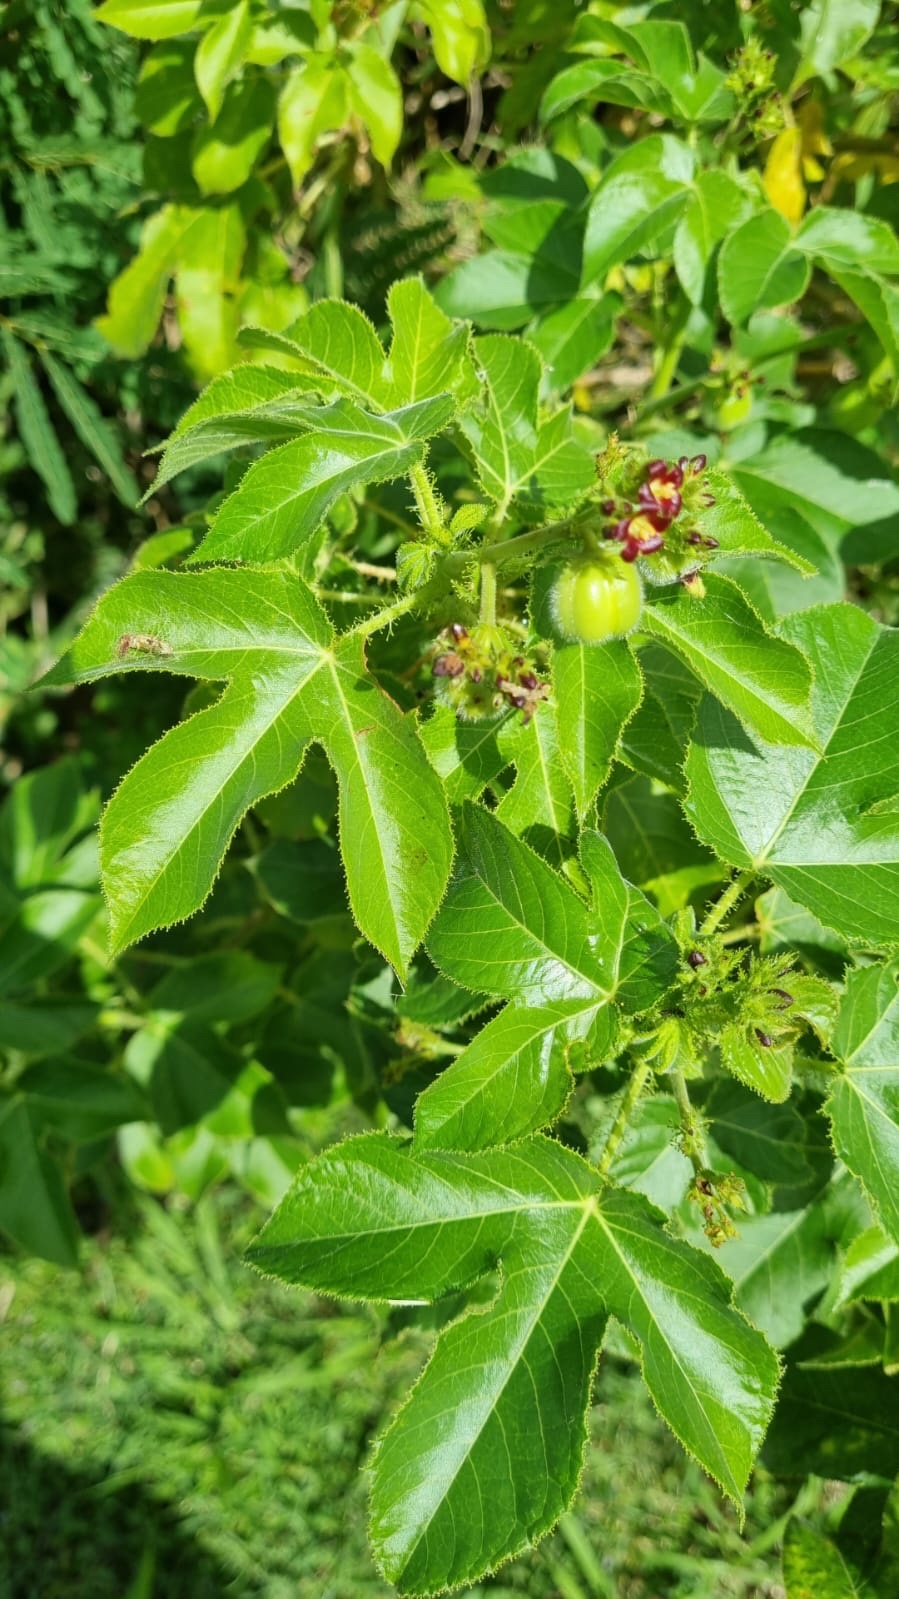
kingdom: Plantae
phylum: Tracheophyta
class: Magnoliopsida
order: Malpighiales
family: Euphorbiaceae
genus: Jatropha
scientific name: Jatropha gossypiifolia
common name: Bellyache bush
